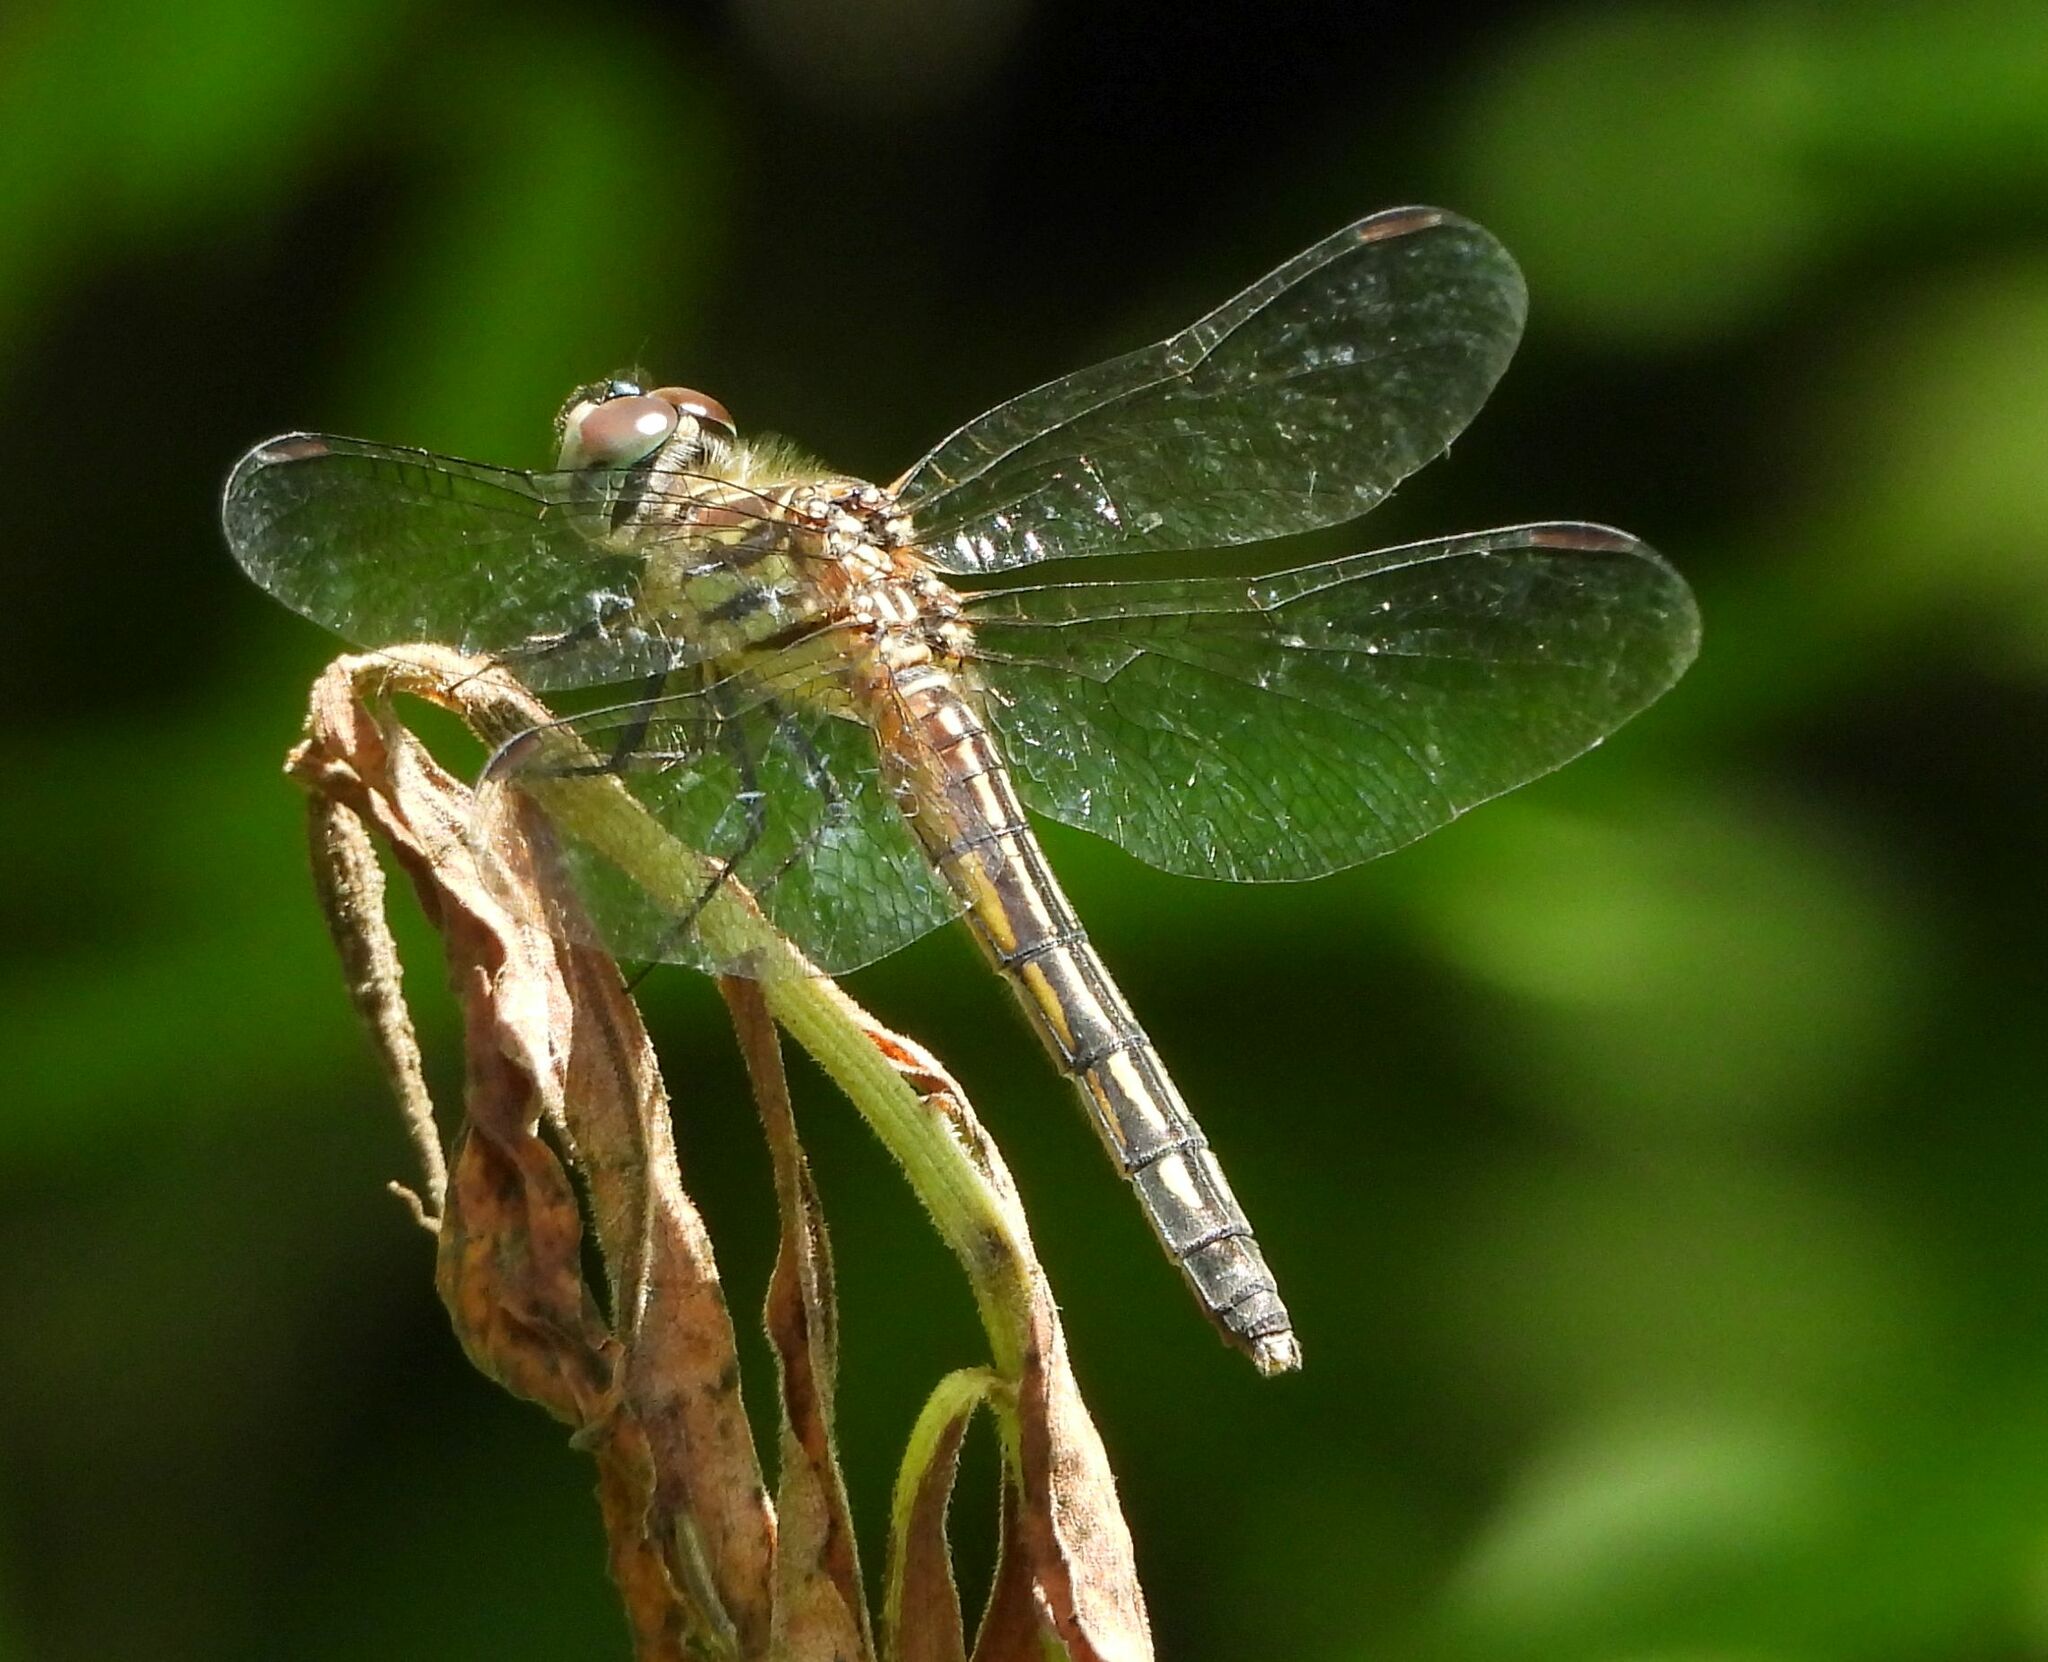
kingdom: Animalia
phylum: Arthropoda
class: Insecta
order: Odonata
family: Libellulidae
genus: Pachydiplax
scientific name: Pachydiplax longipennis
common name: Blue dasher
